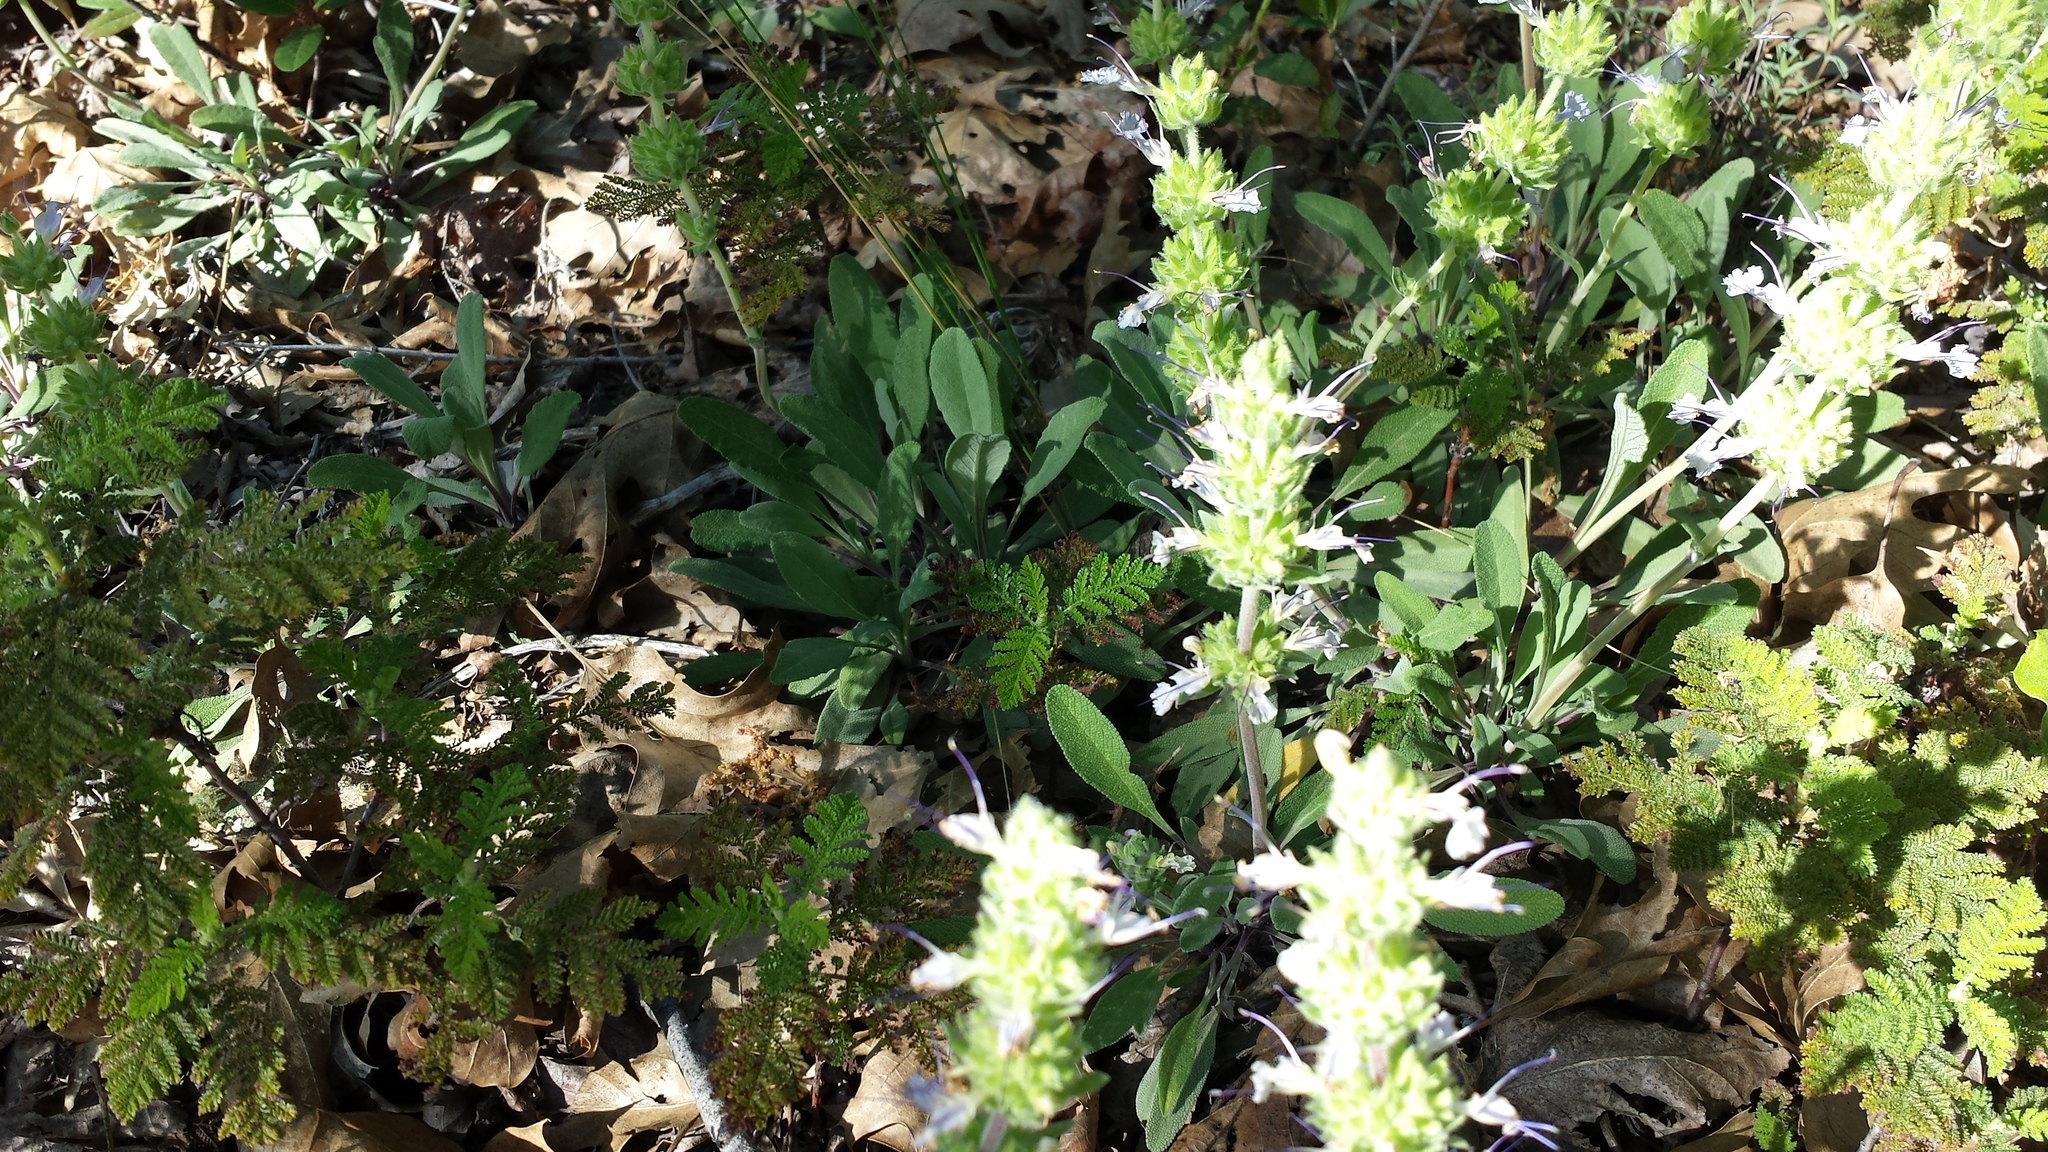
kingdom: Plantae
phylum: Tracheophyta
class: Magnoliopsida
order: Lamiales
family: Lamiaceae
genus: Salvia
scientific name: Salvia sonomensis
